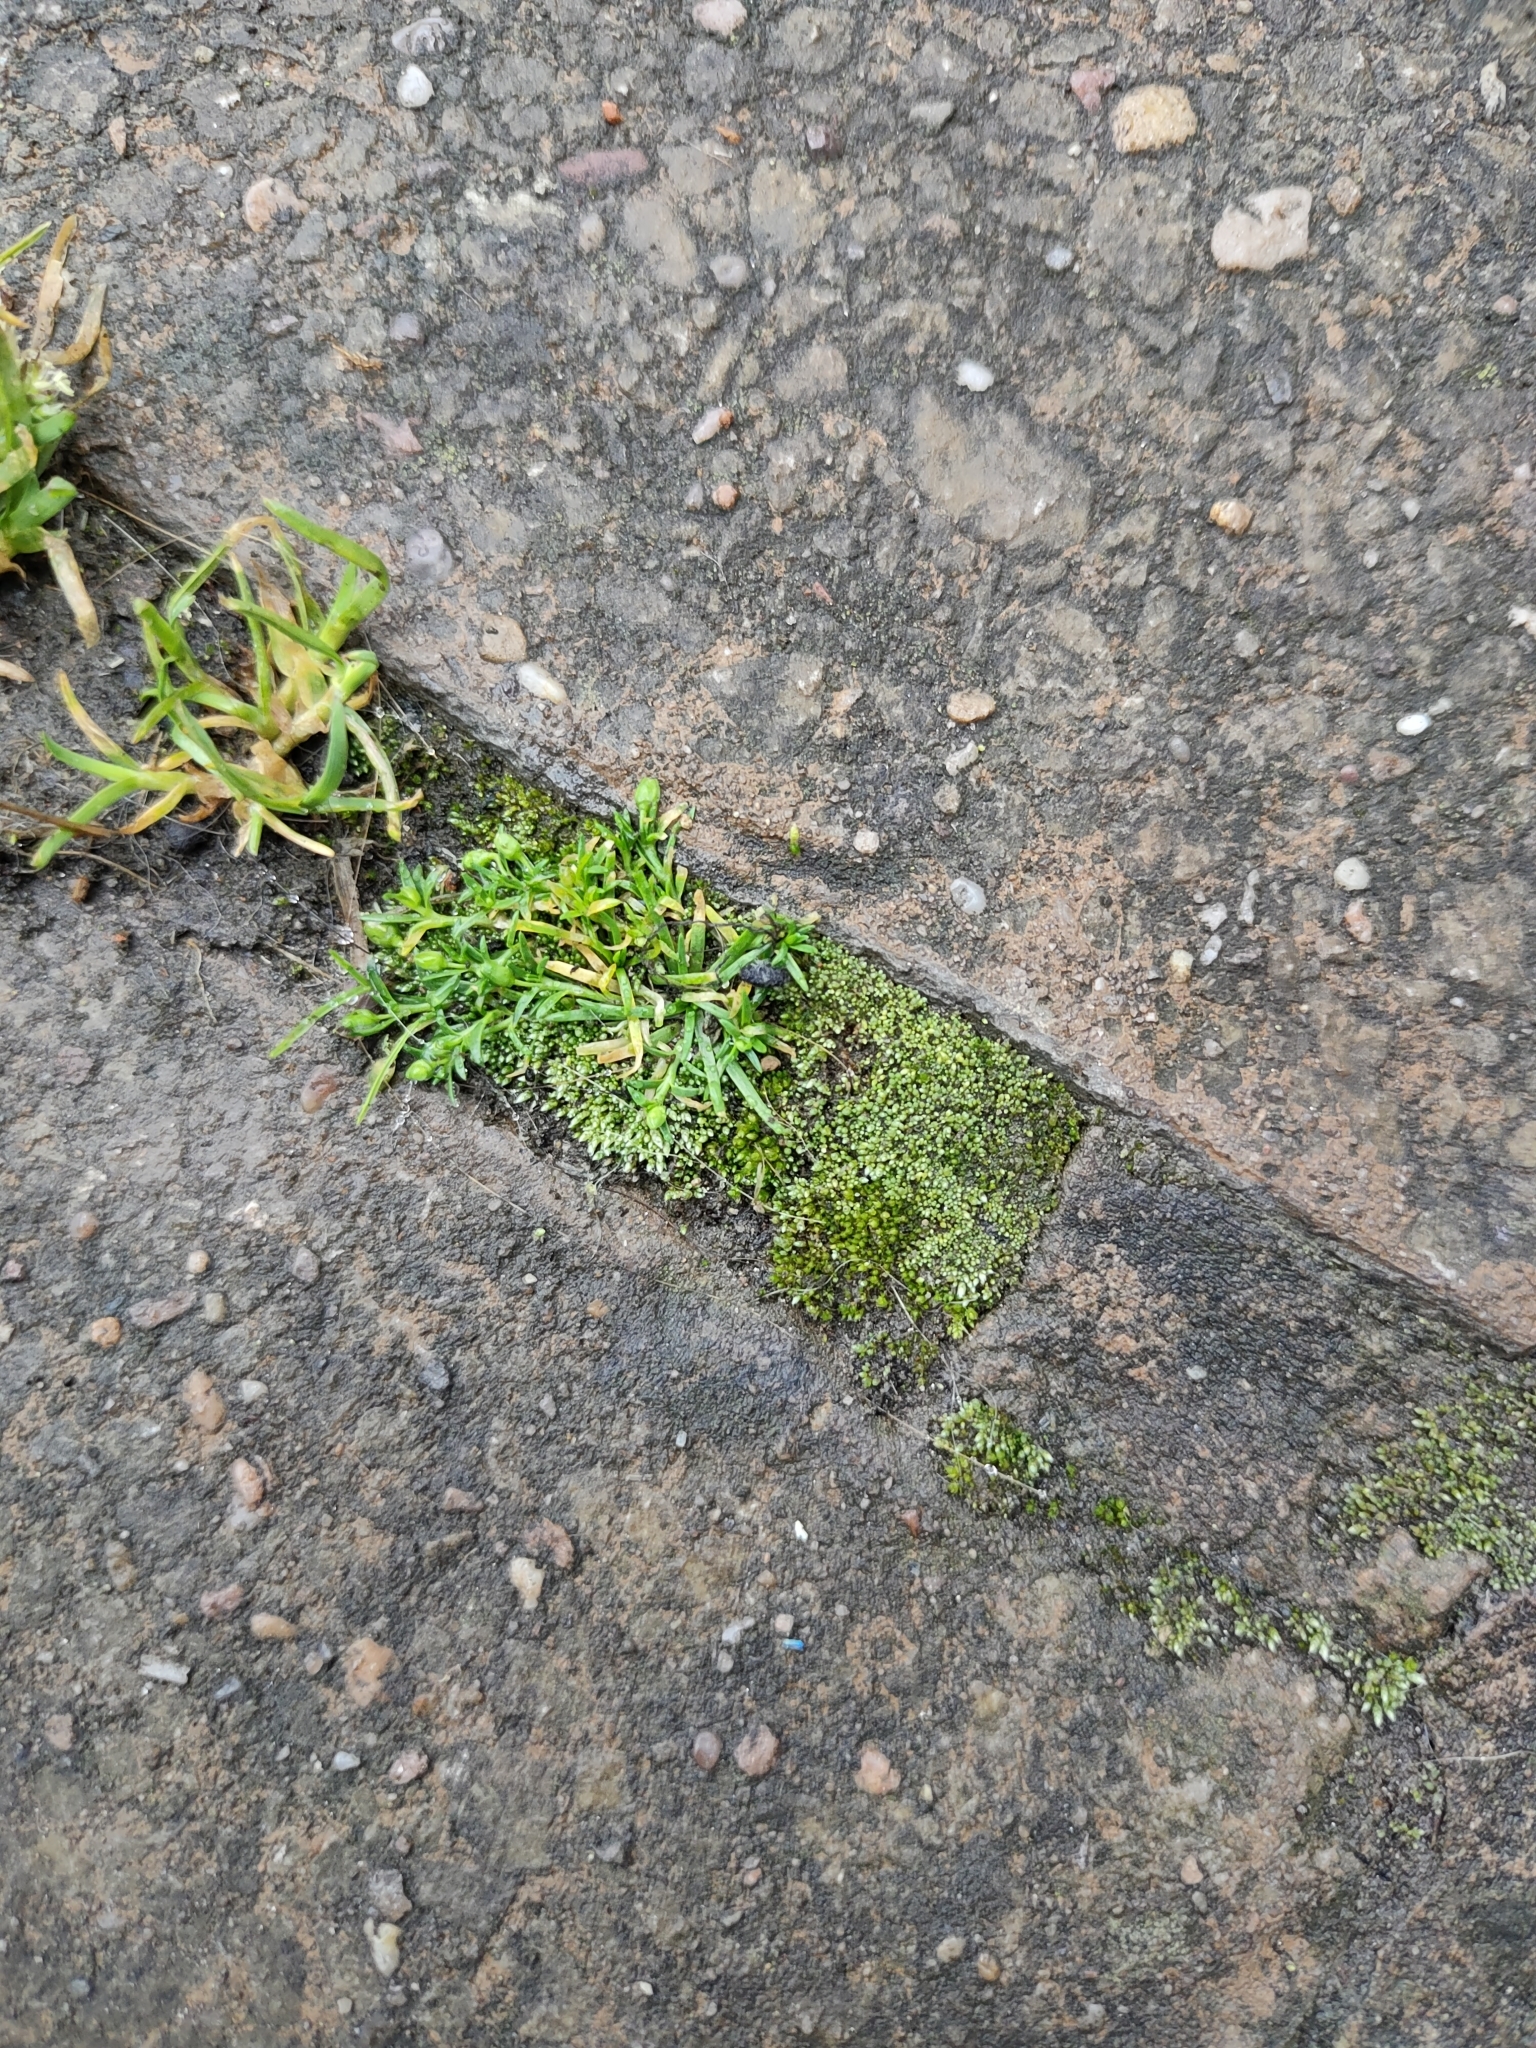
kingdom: Plantae
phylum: Bryophyta
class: Bryopsida
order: Bryales
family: Bryaceae
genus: Bryum
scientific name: Bryum argenteum
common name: Silver-moss
